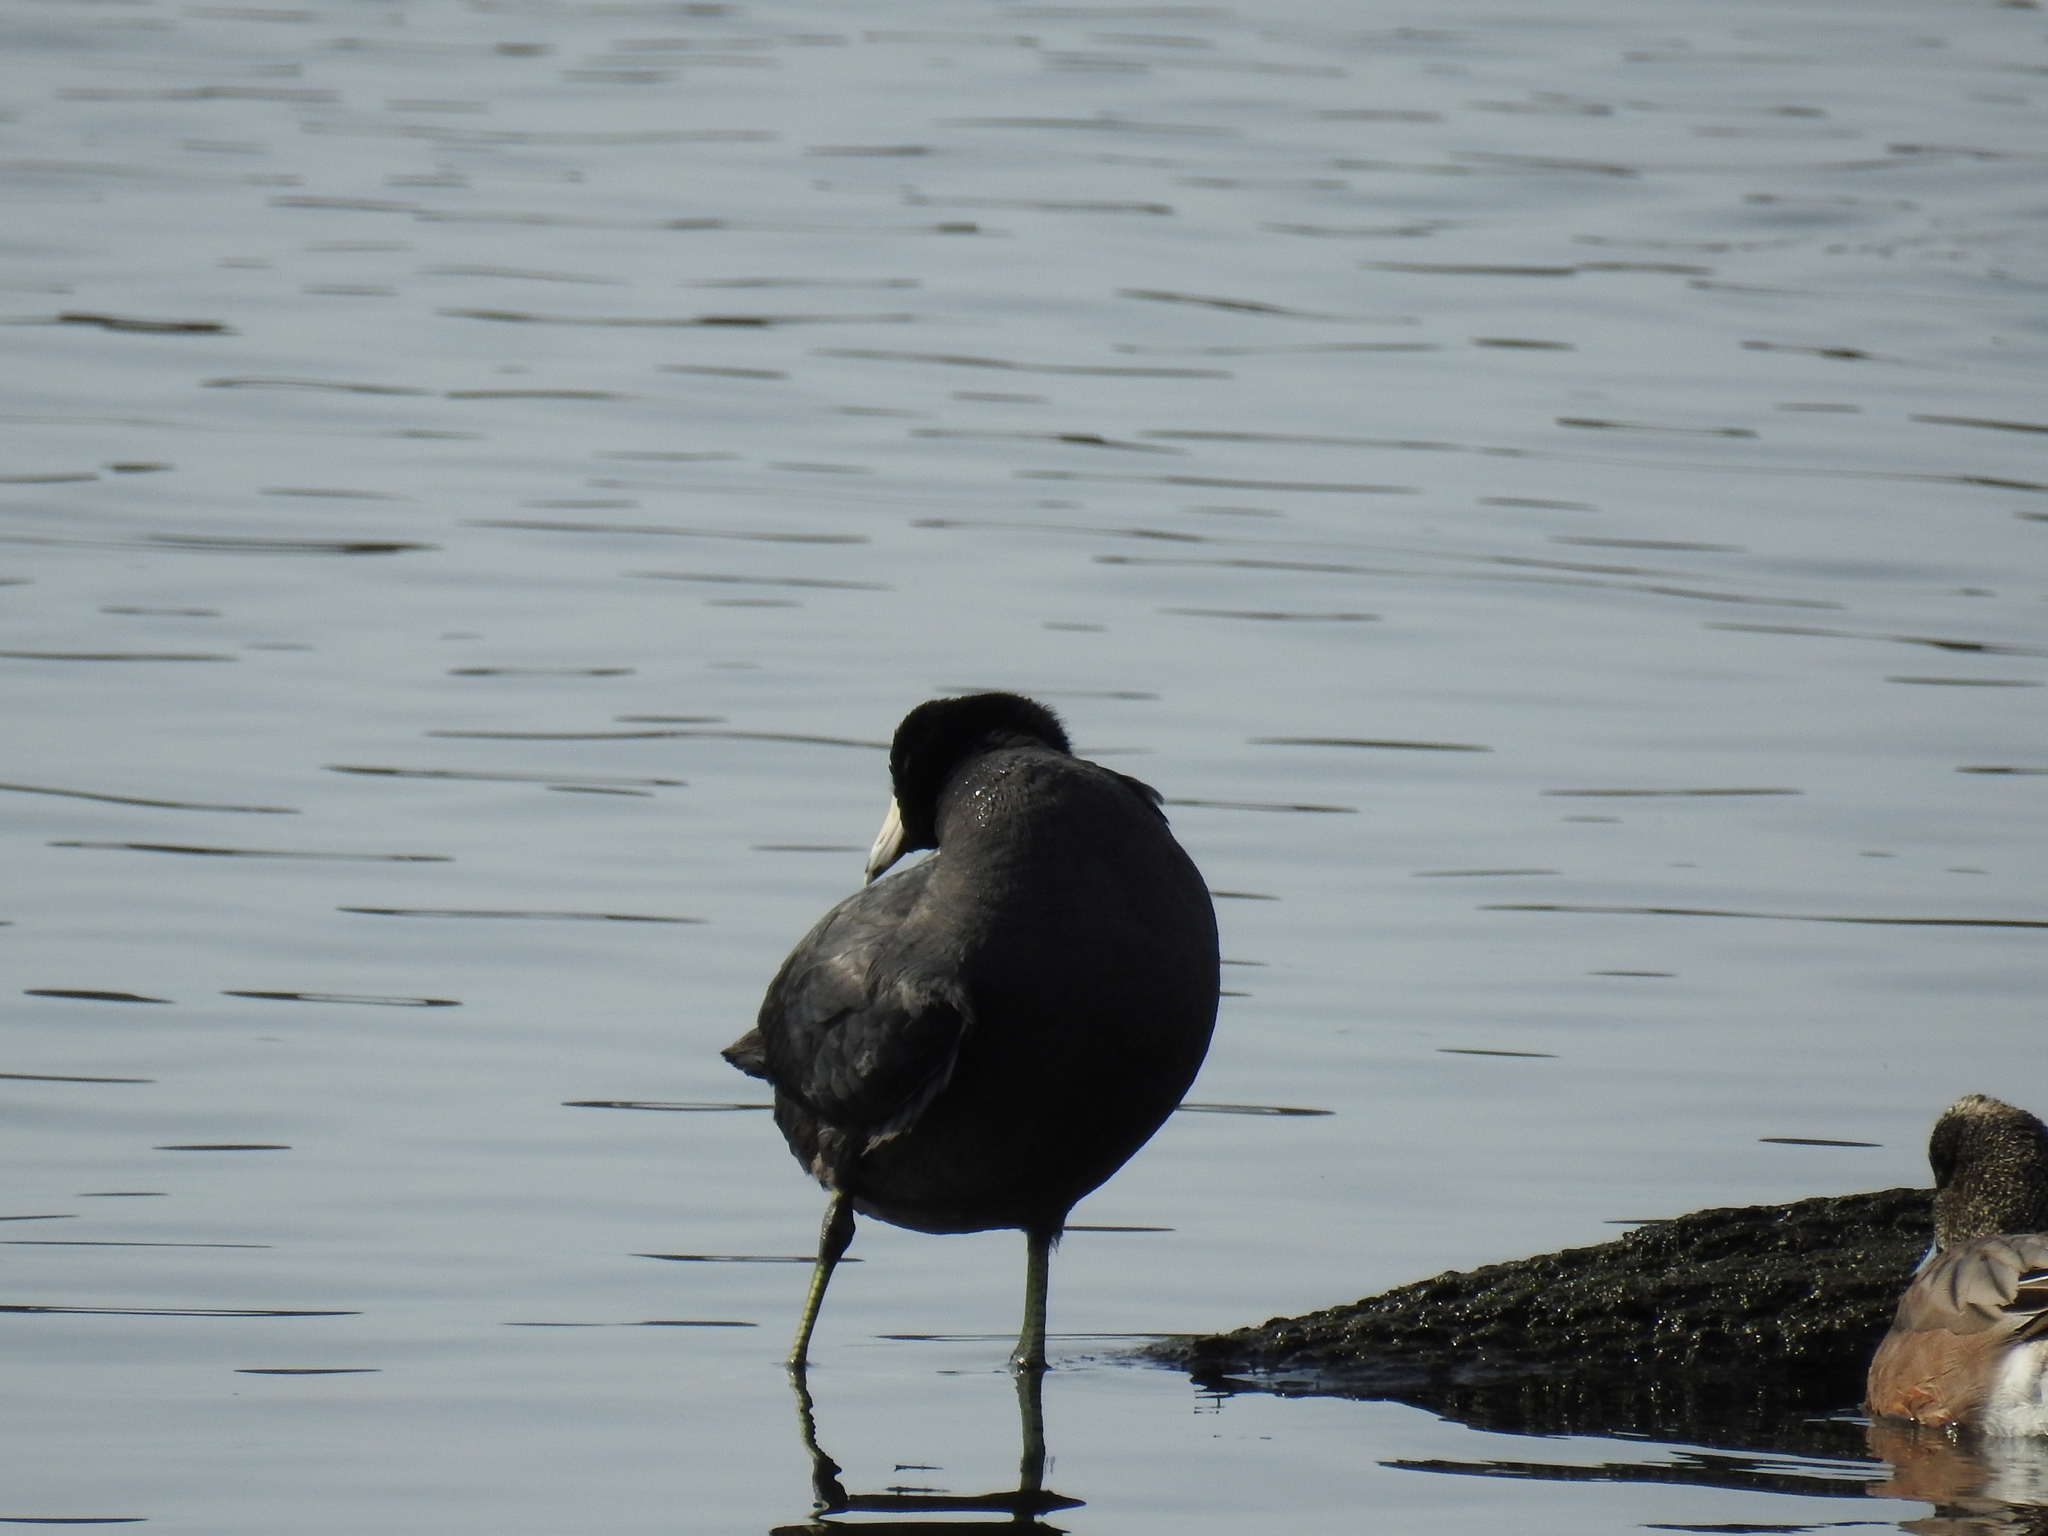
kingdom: Animalia
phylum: Chordata
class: Aves
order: Gruiformes
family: Rallidae
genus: Fulica
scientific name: Fulica americana
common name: American coot
